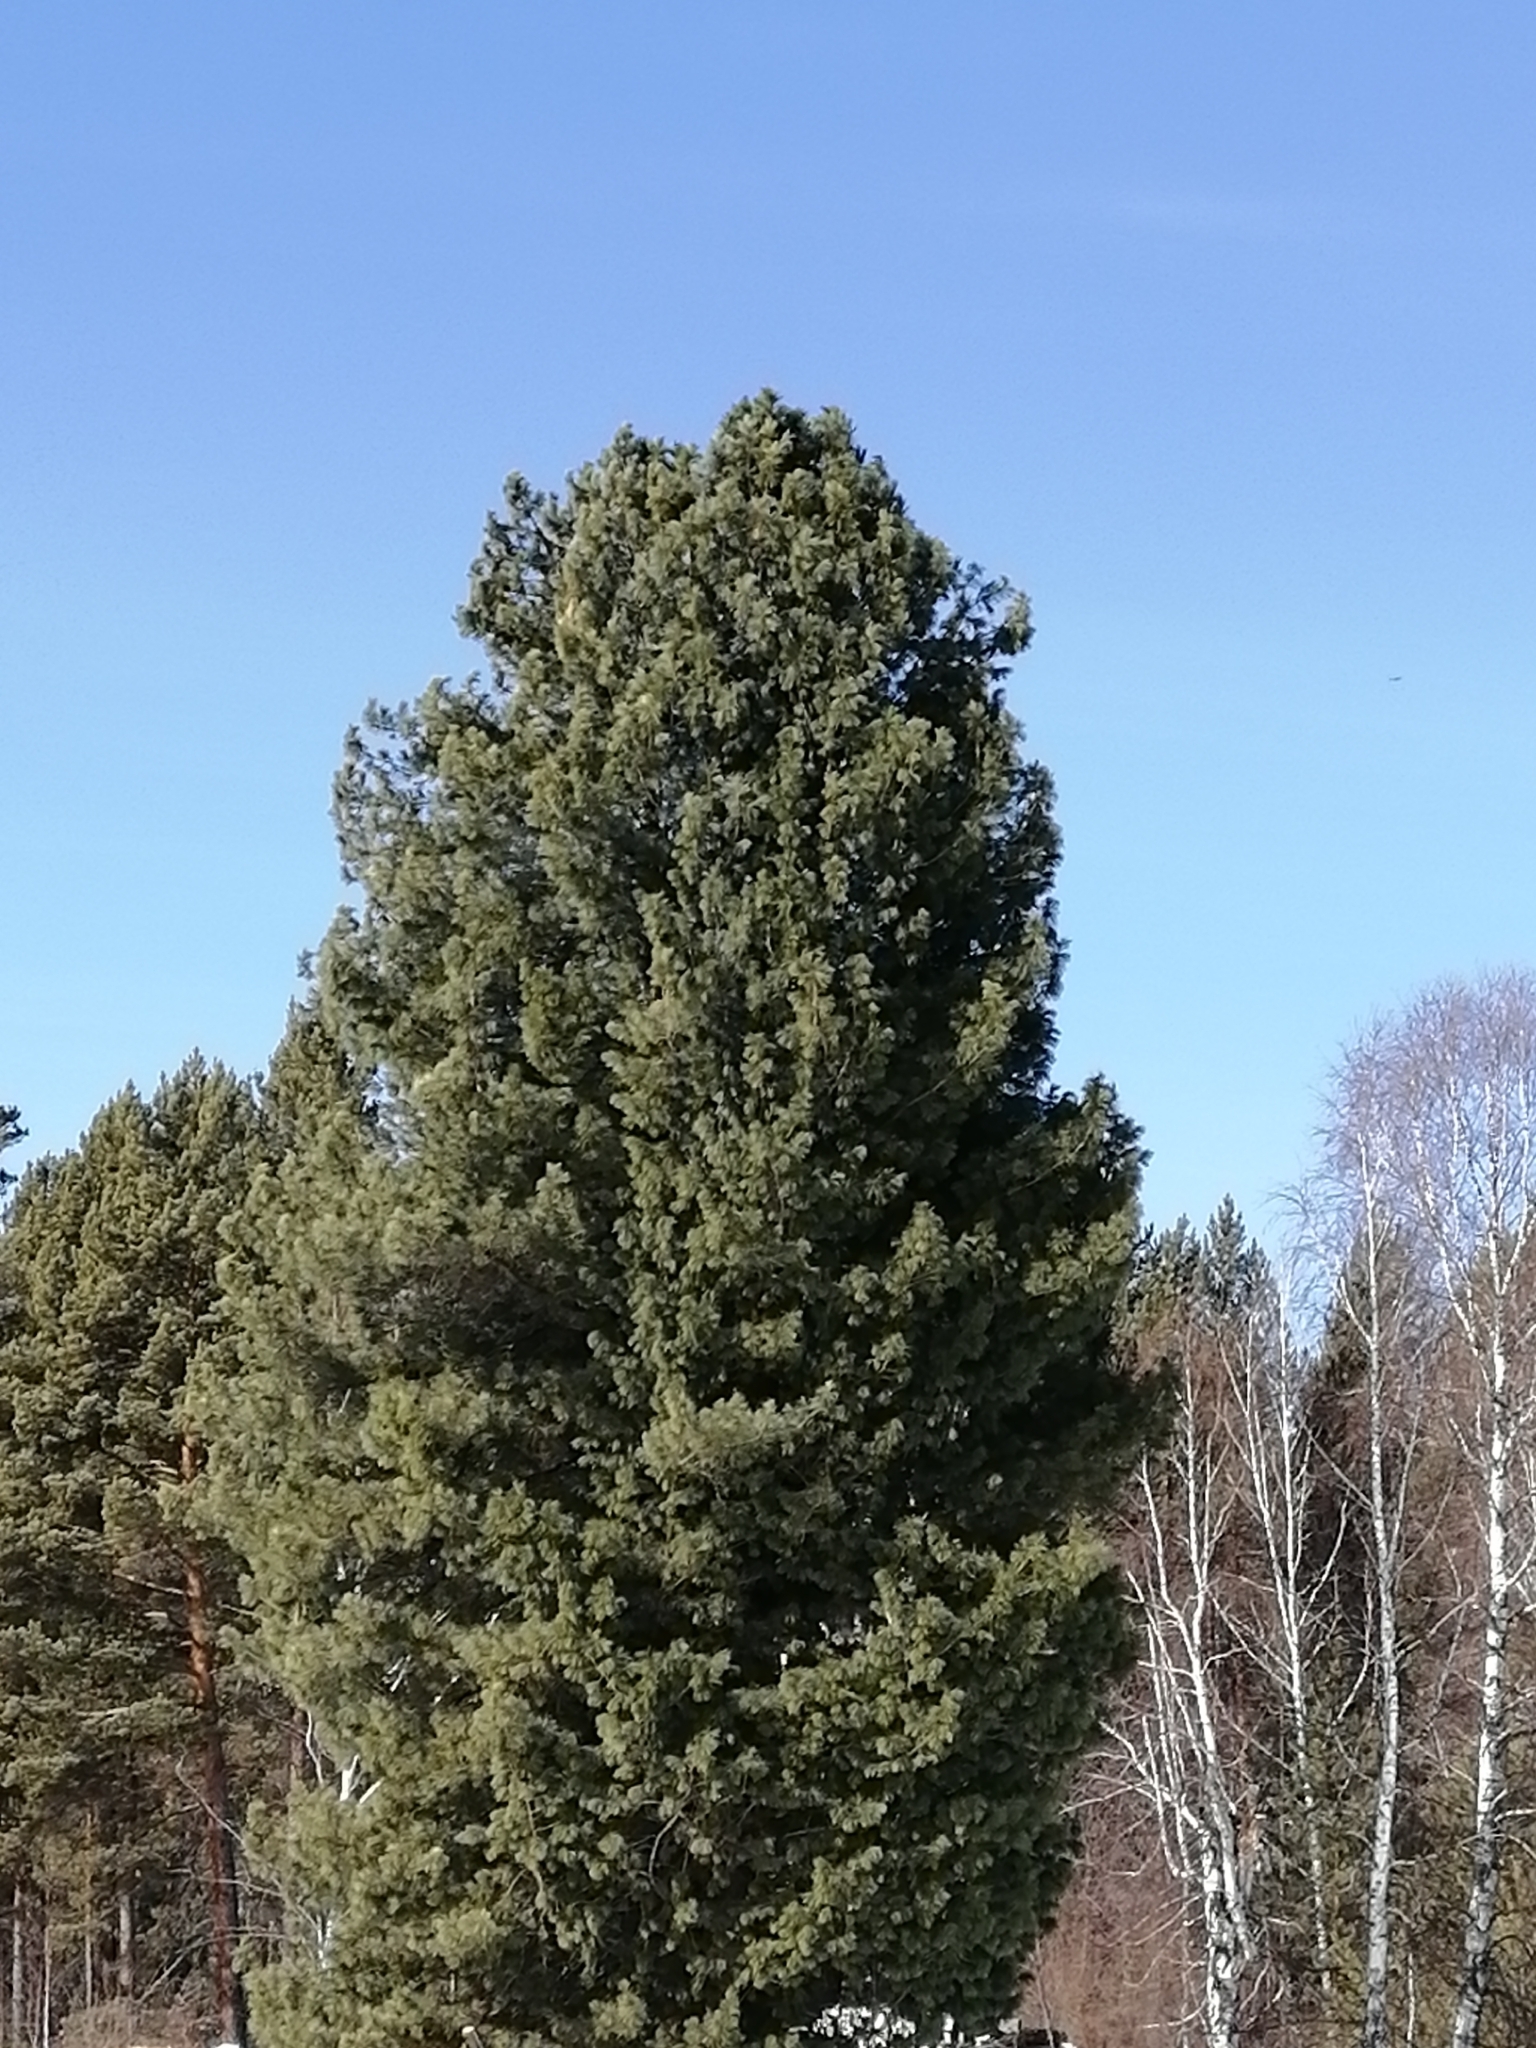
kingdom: Plantae
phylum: Tracheophyta
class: Pinopsida
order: Pinales
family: Pinaceae
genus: Pinus
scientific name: Pinus sibirica
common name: Siberian pine
